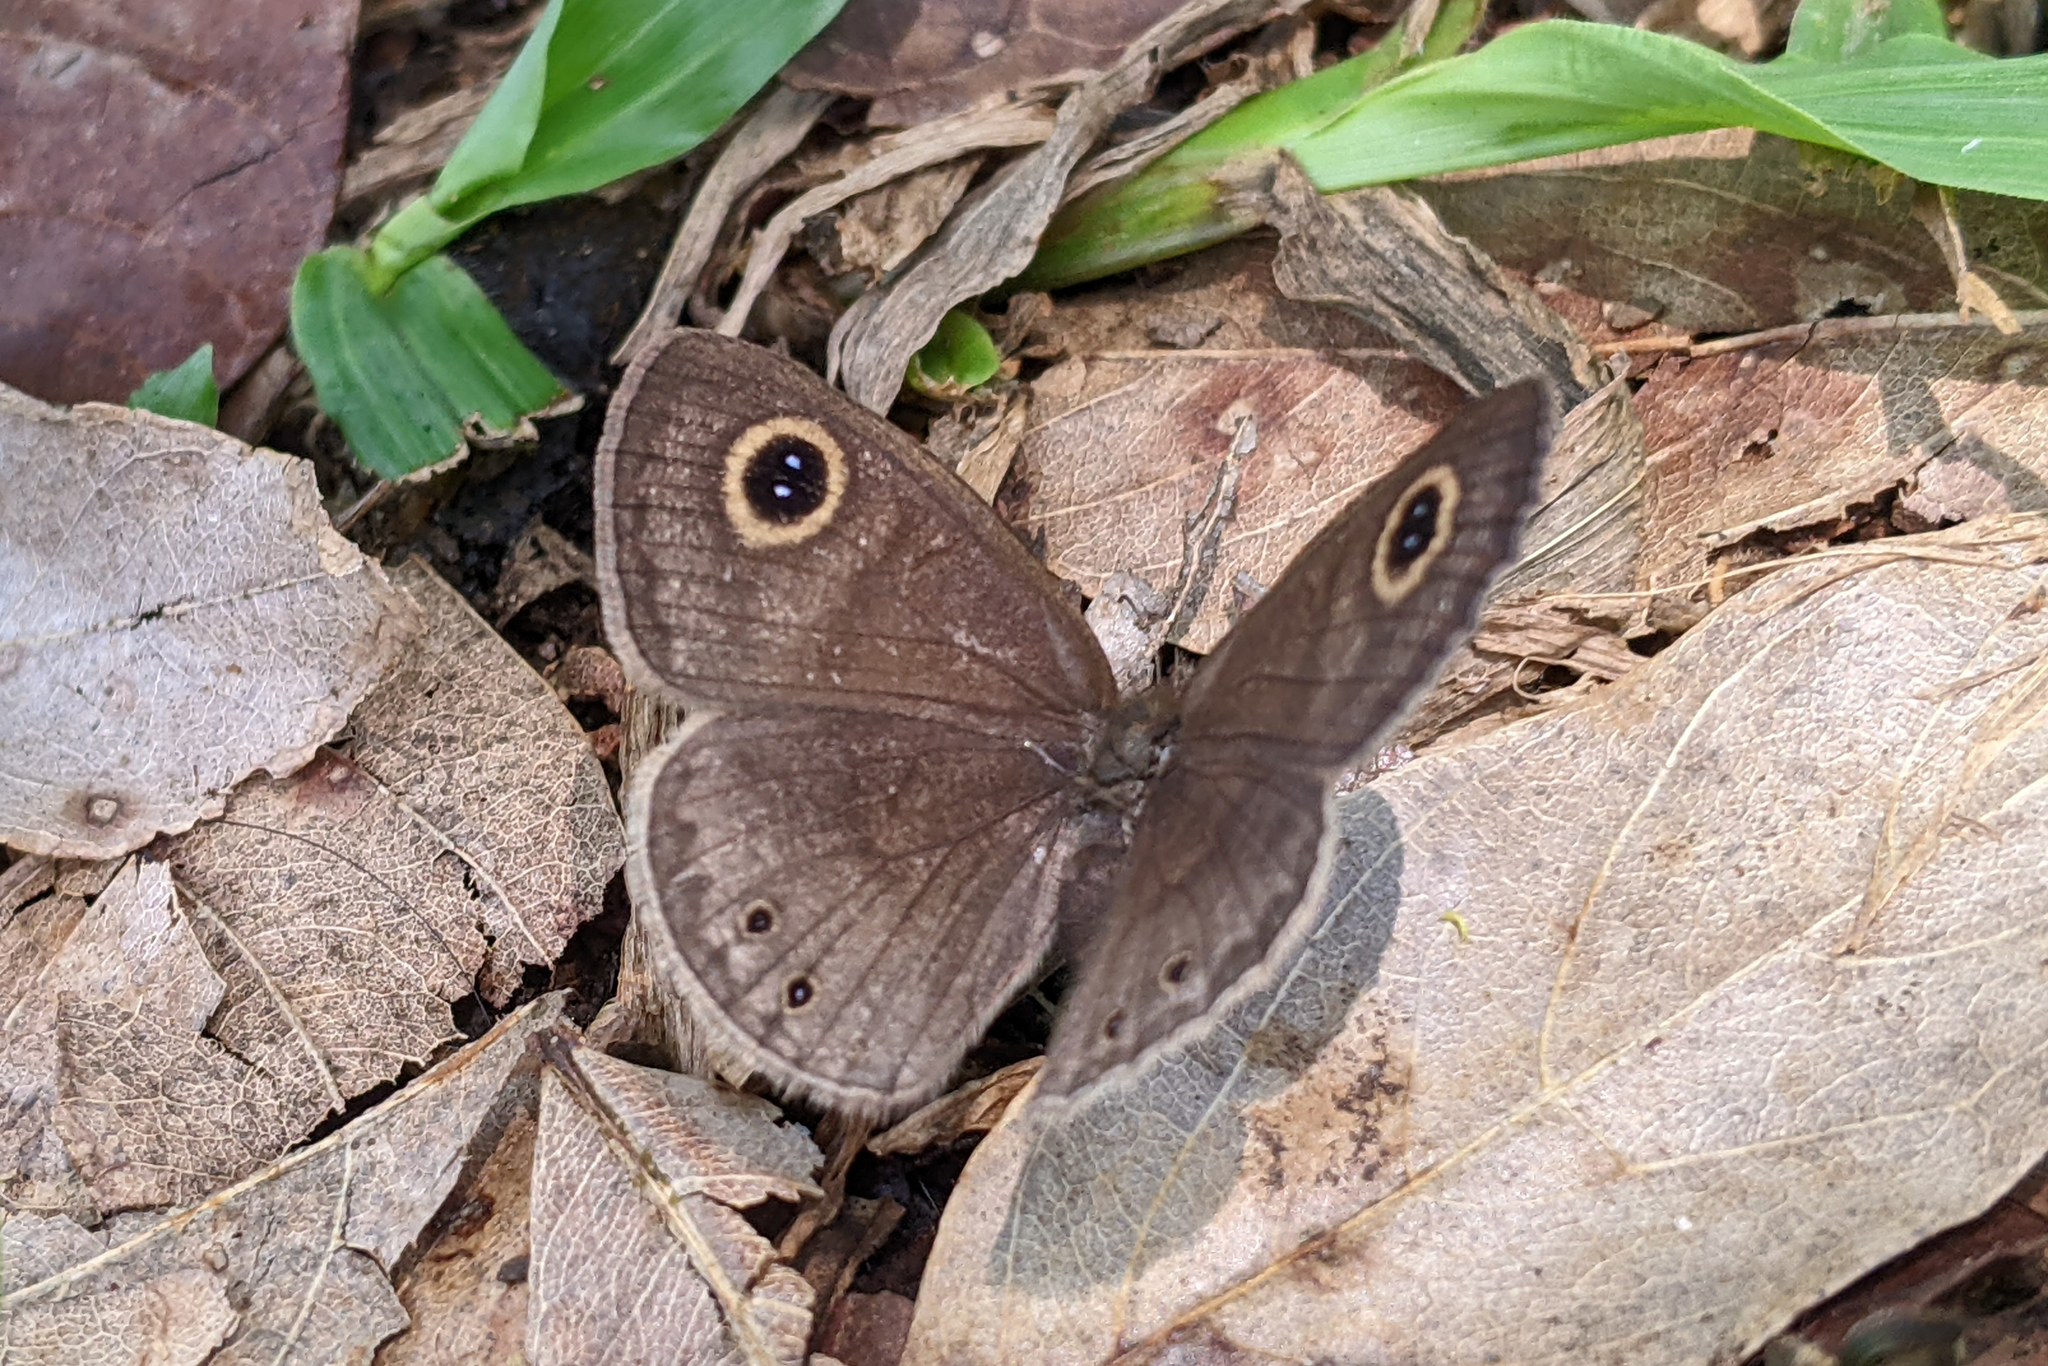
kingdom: Animalia
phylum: Arthropoda
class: Insecta
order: Lepidoptera
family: Nymphalidae
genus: Ypthima
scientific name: Ypthima huebneri
